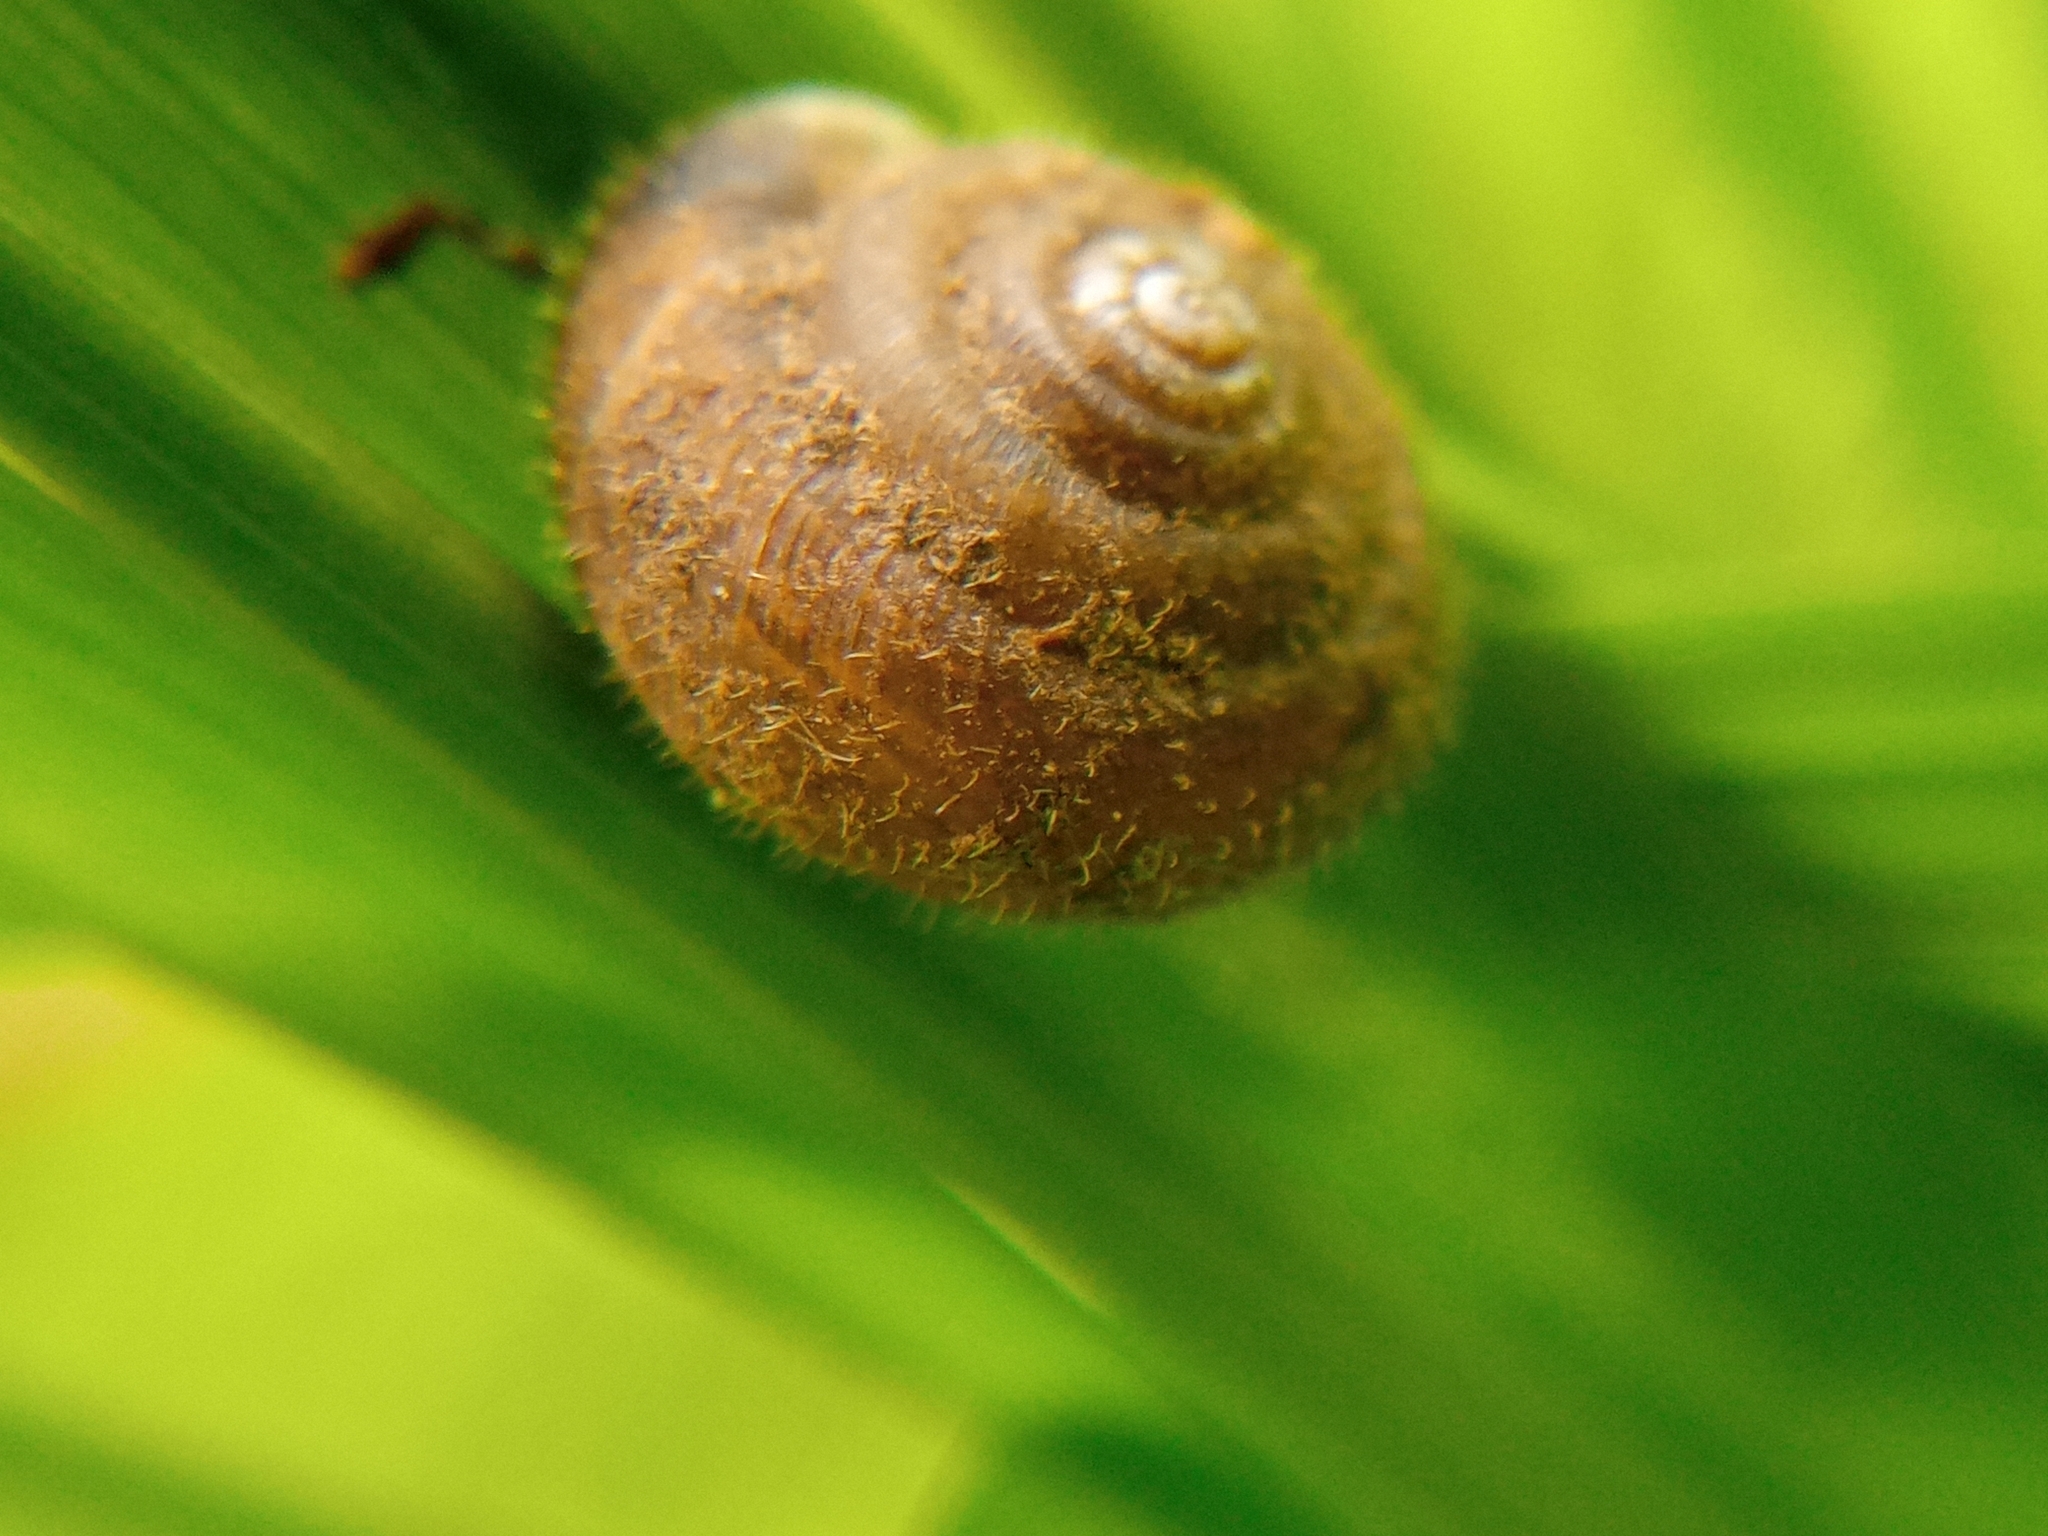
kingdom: Animalia
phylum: Mollusca
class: Gastropoda
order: Stylommatophora
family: Hygromiidae
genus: Trochulus
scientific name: Trochulus hispidus
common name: Hairy snail
